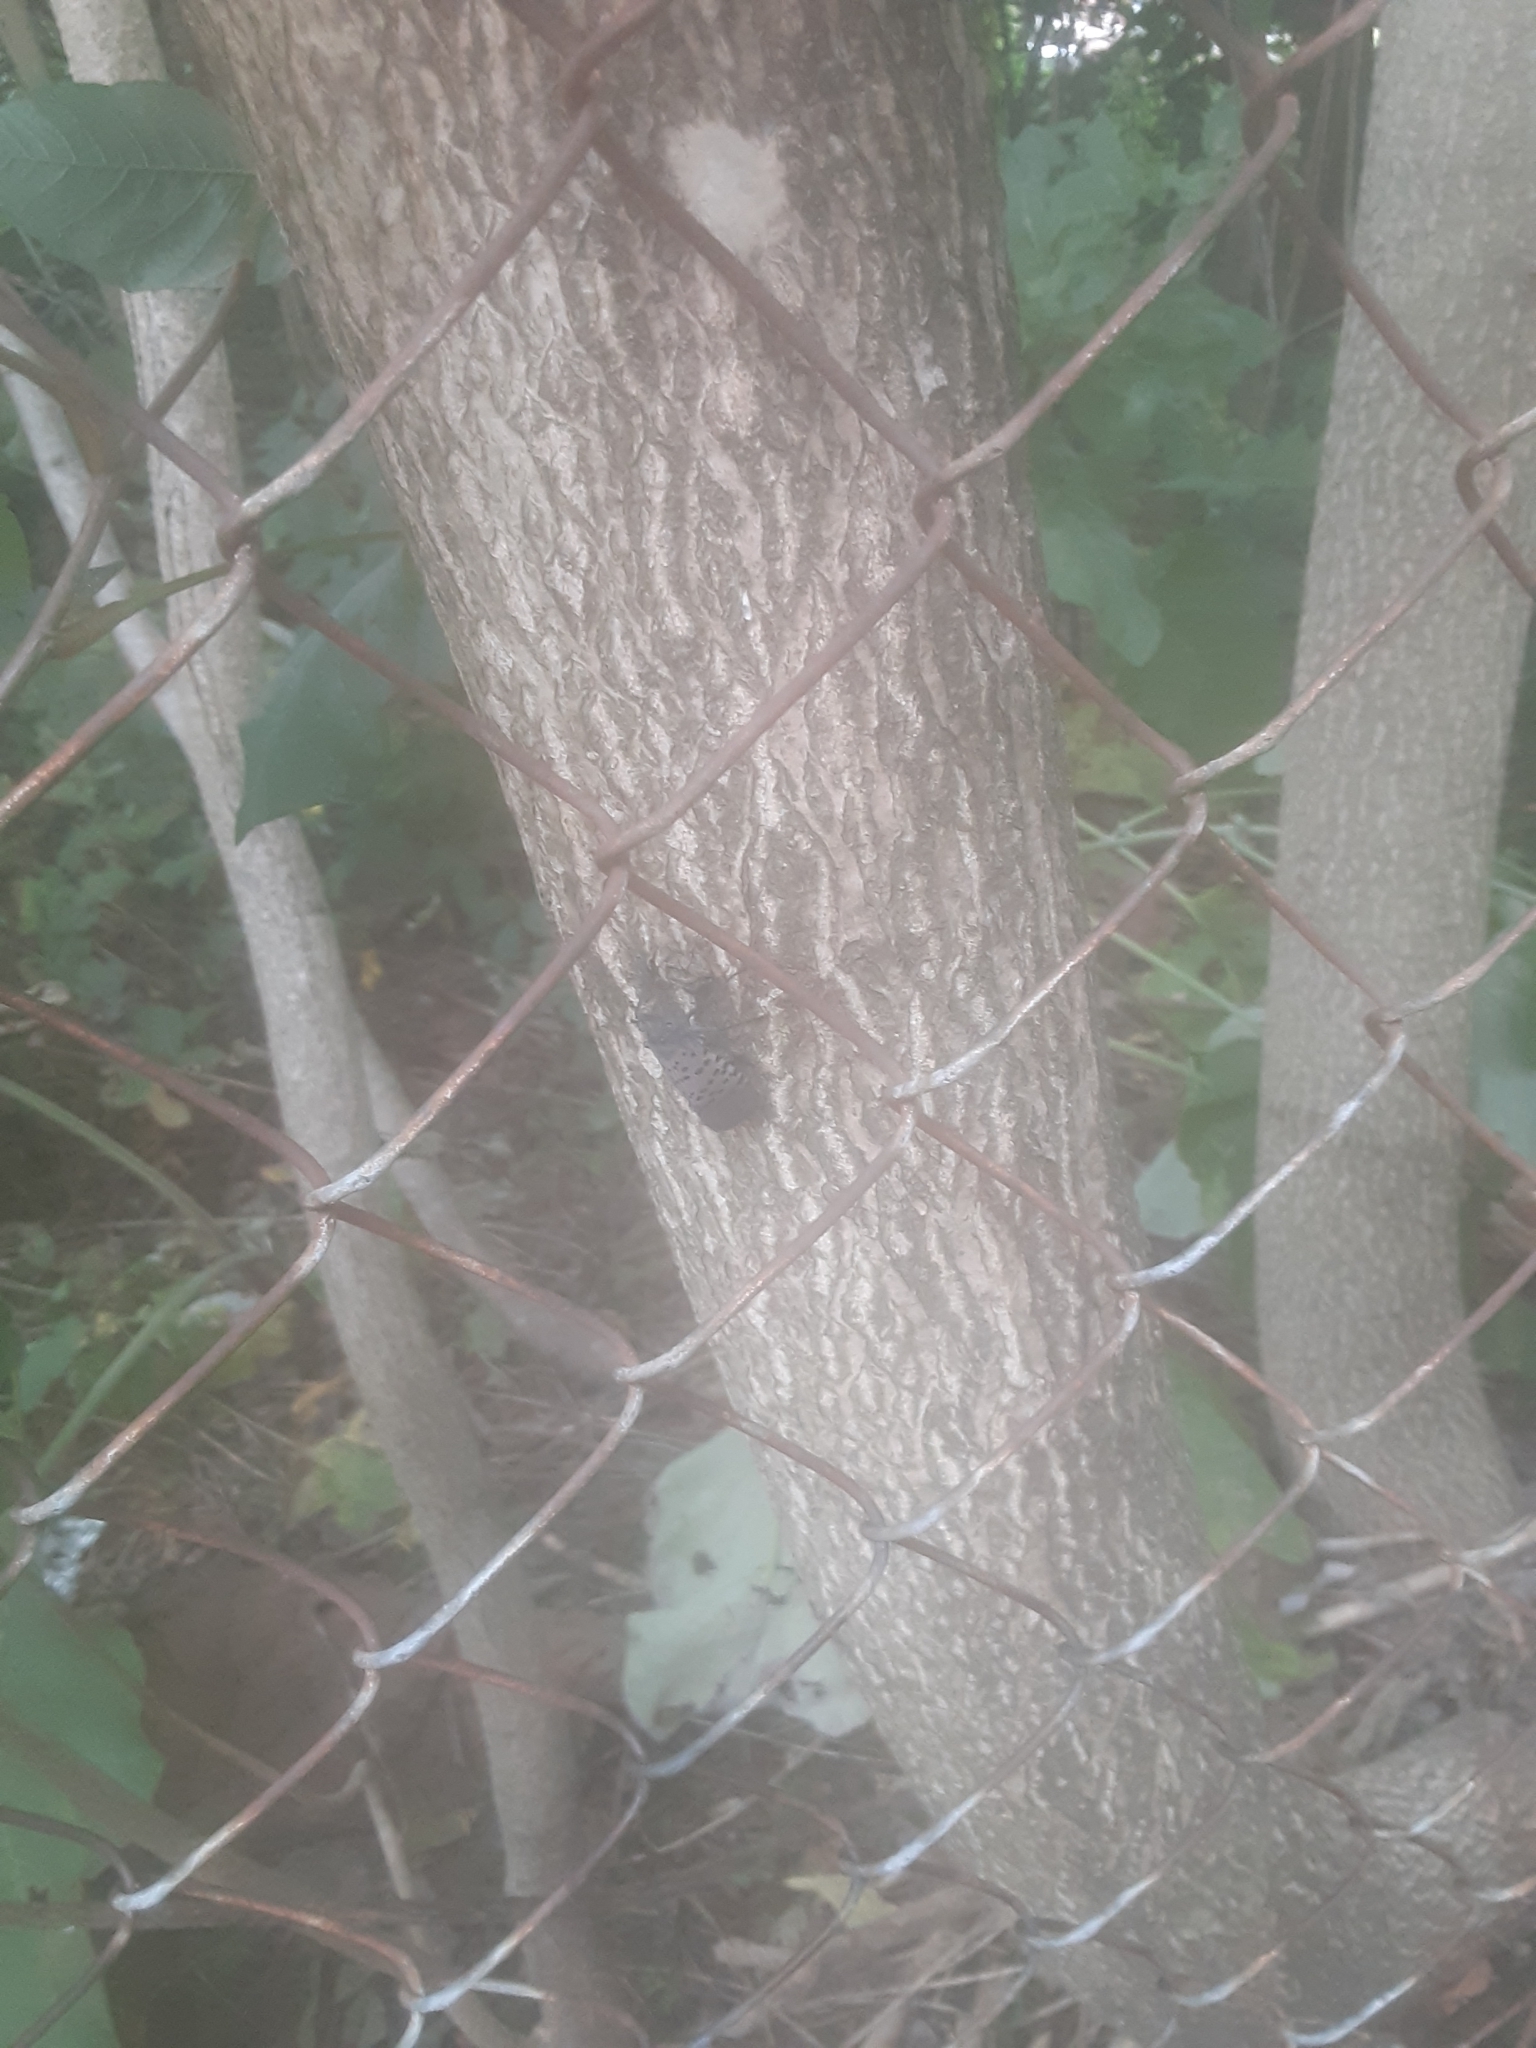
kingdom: Animalia
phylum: Arthropoda
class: Insecta
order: Hemiptera
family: Fulgoridae
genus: Lycorma
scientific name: Lycorma delicatula
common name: Spotted lanternfly
